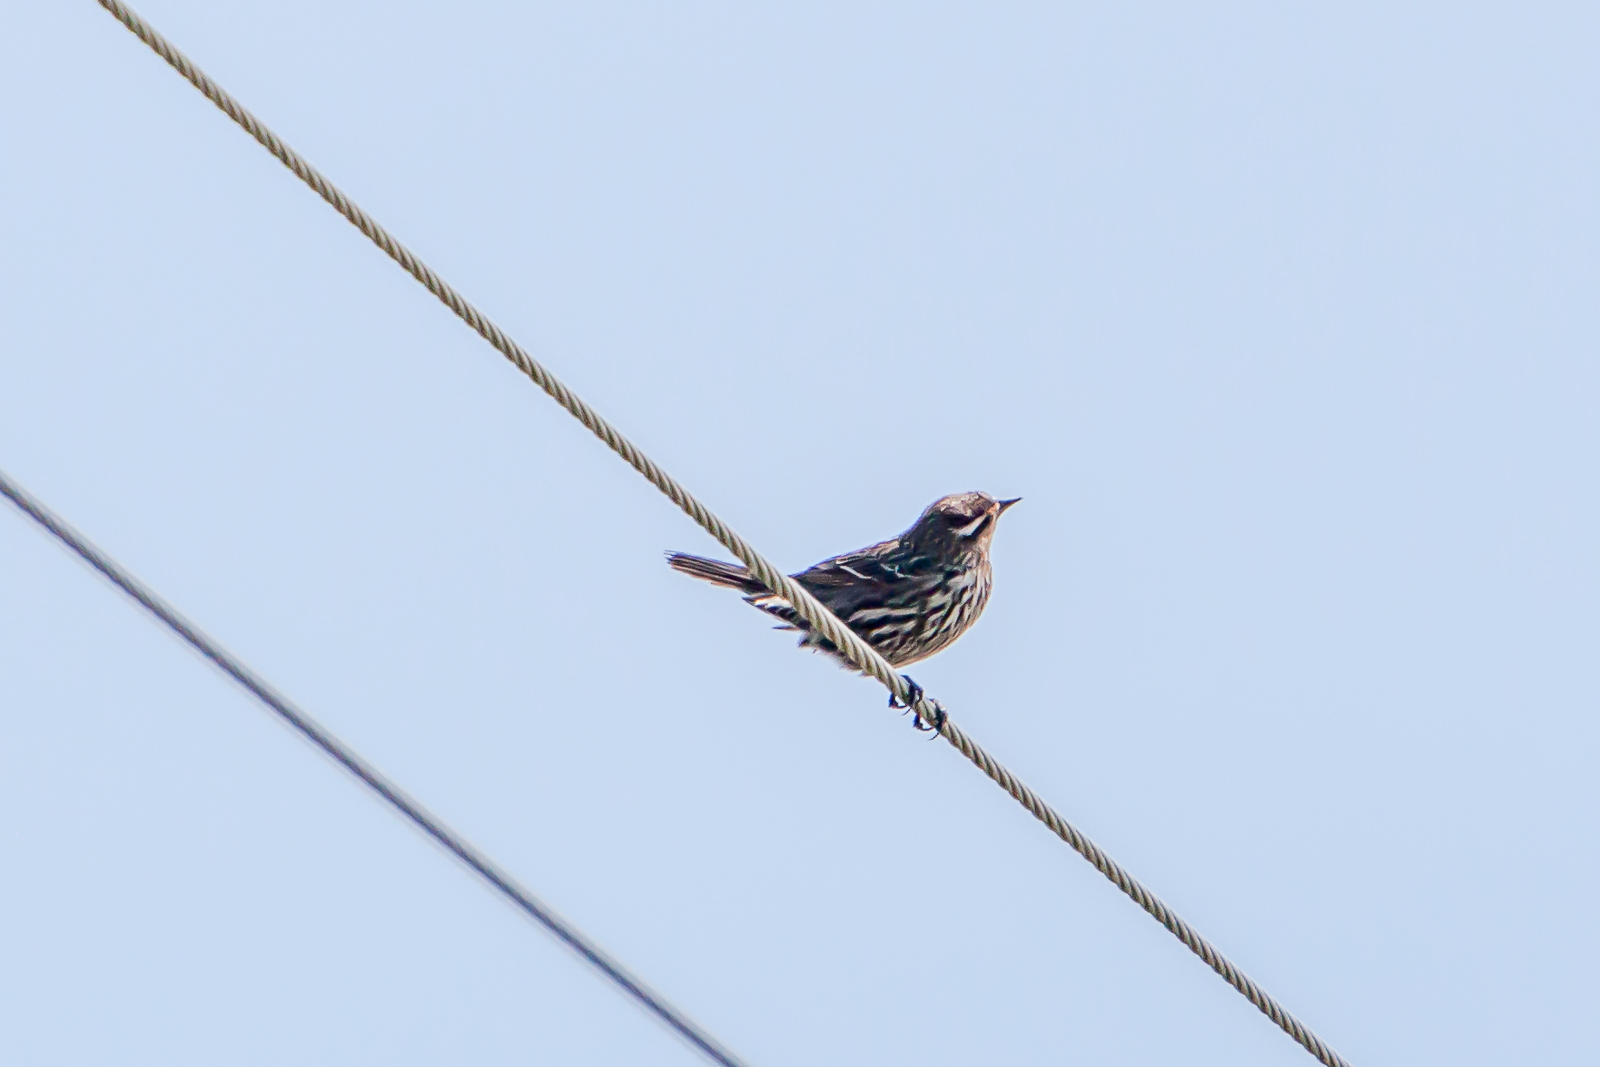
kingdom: Animalia
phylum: Chordata
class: Aves
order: Passeriformes
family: Icteridae
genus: Agelaius
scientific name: Agelaius phoeniceus
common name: Red-winged blackbird
